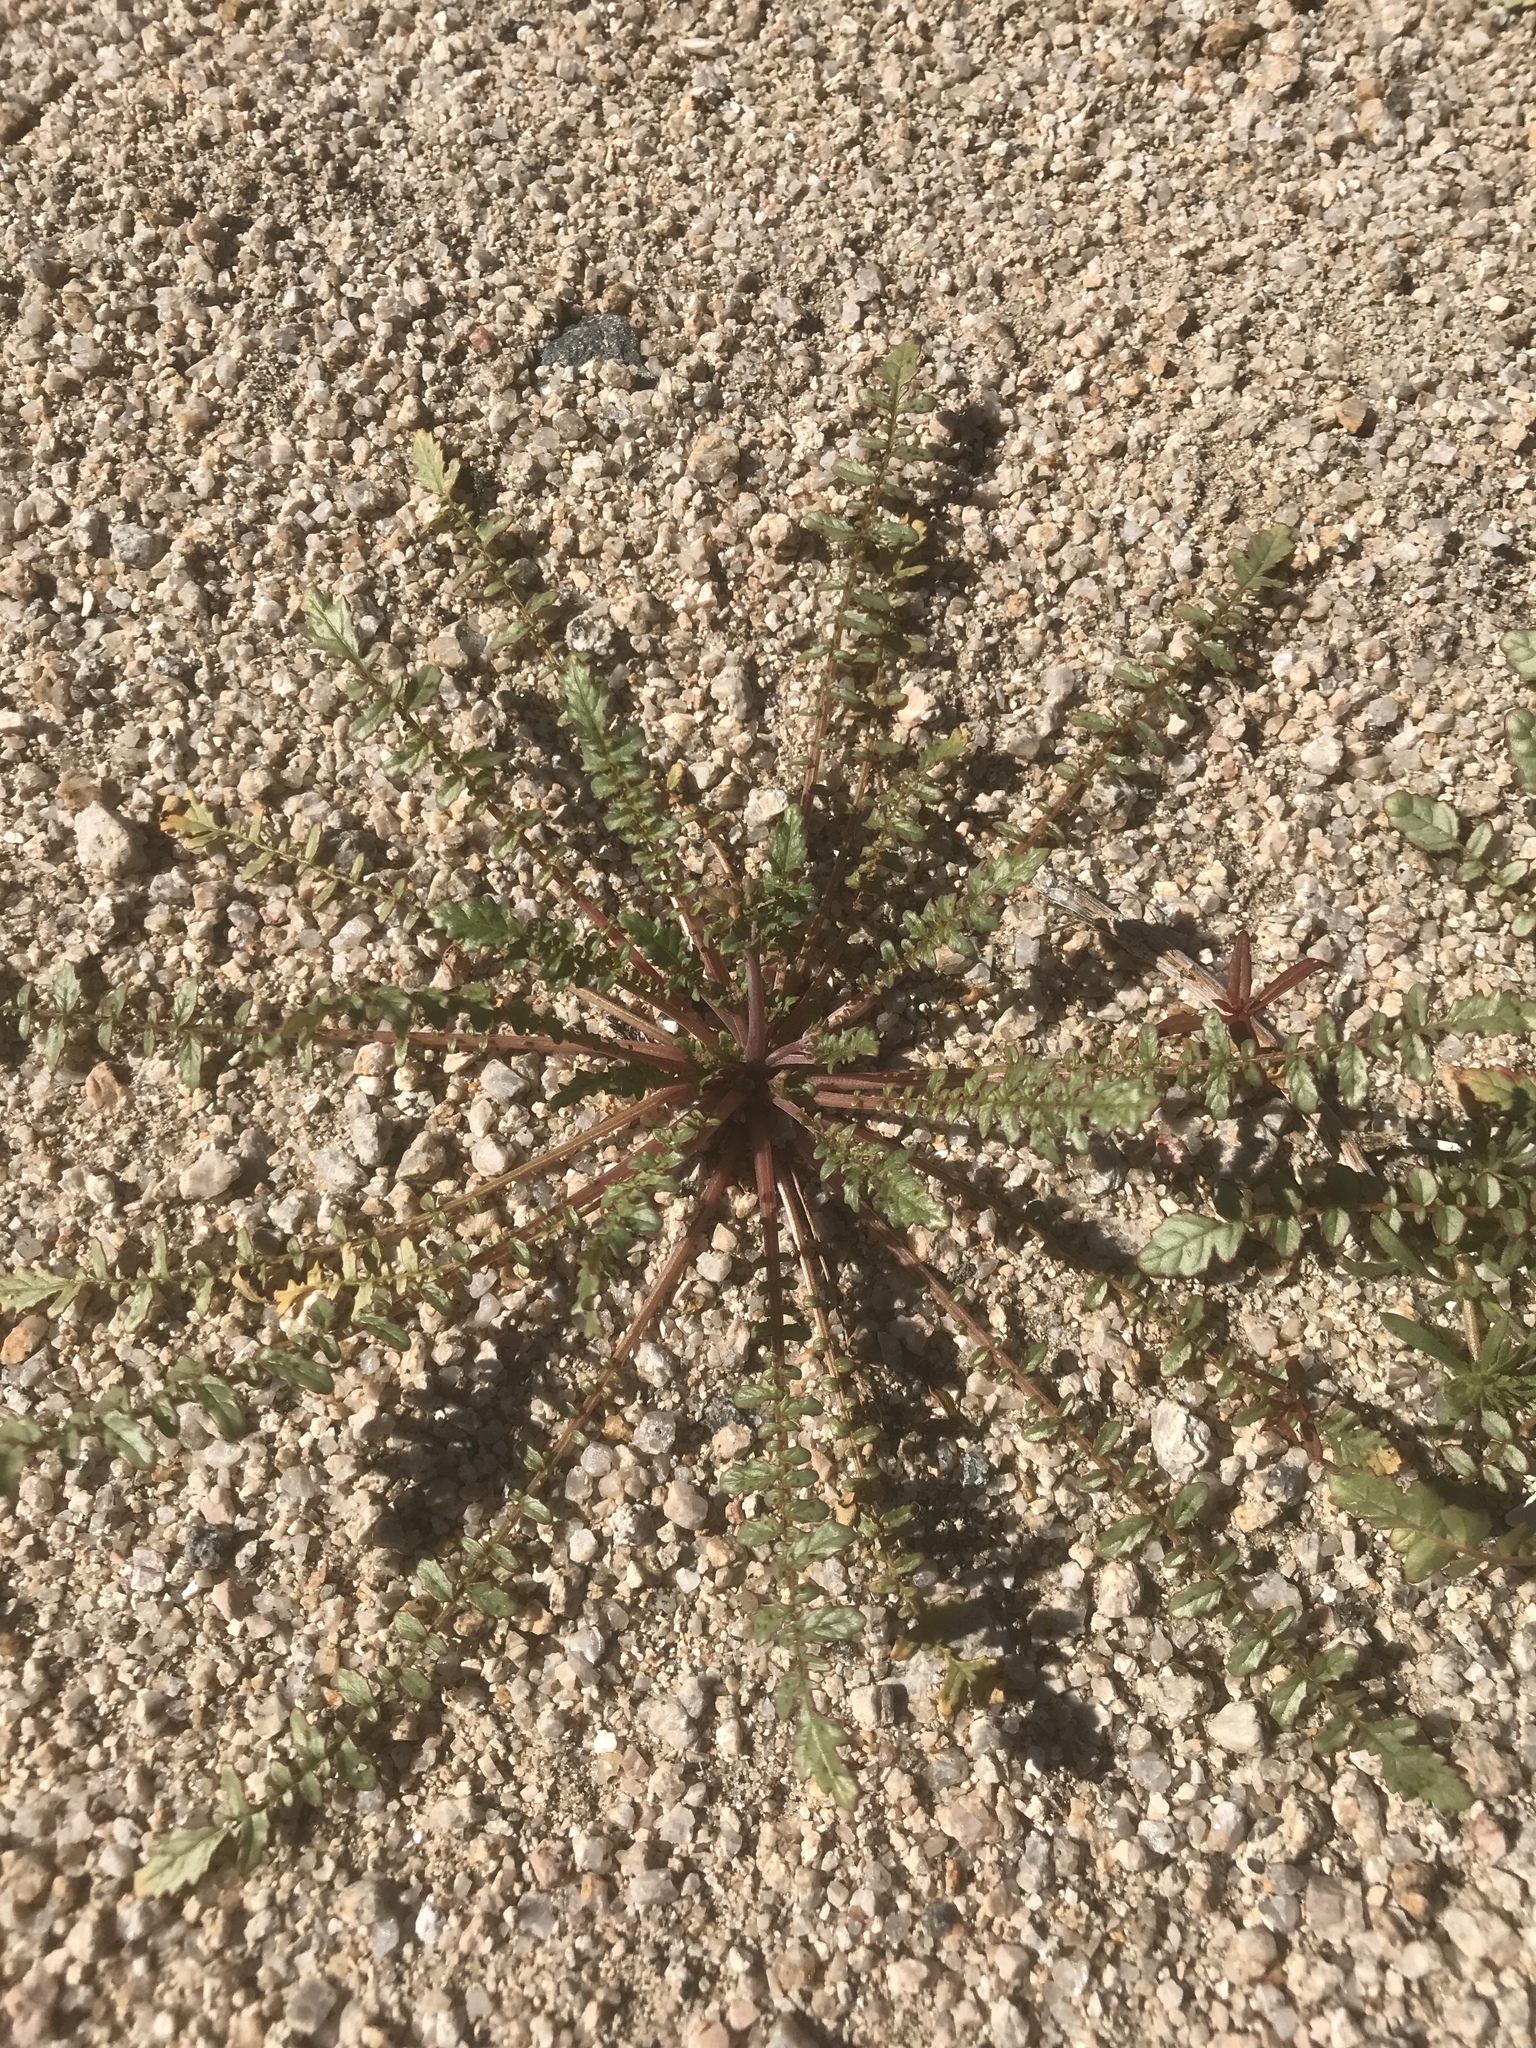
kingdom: Plantae
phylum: Tracheophyta
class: Magnoliopsida
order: Myrtales
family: Onagraceae
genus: Chylismia
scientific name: Chylismia claviformis
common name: Browneyes
